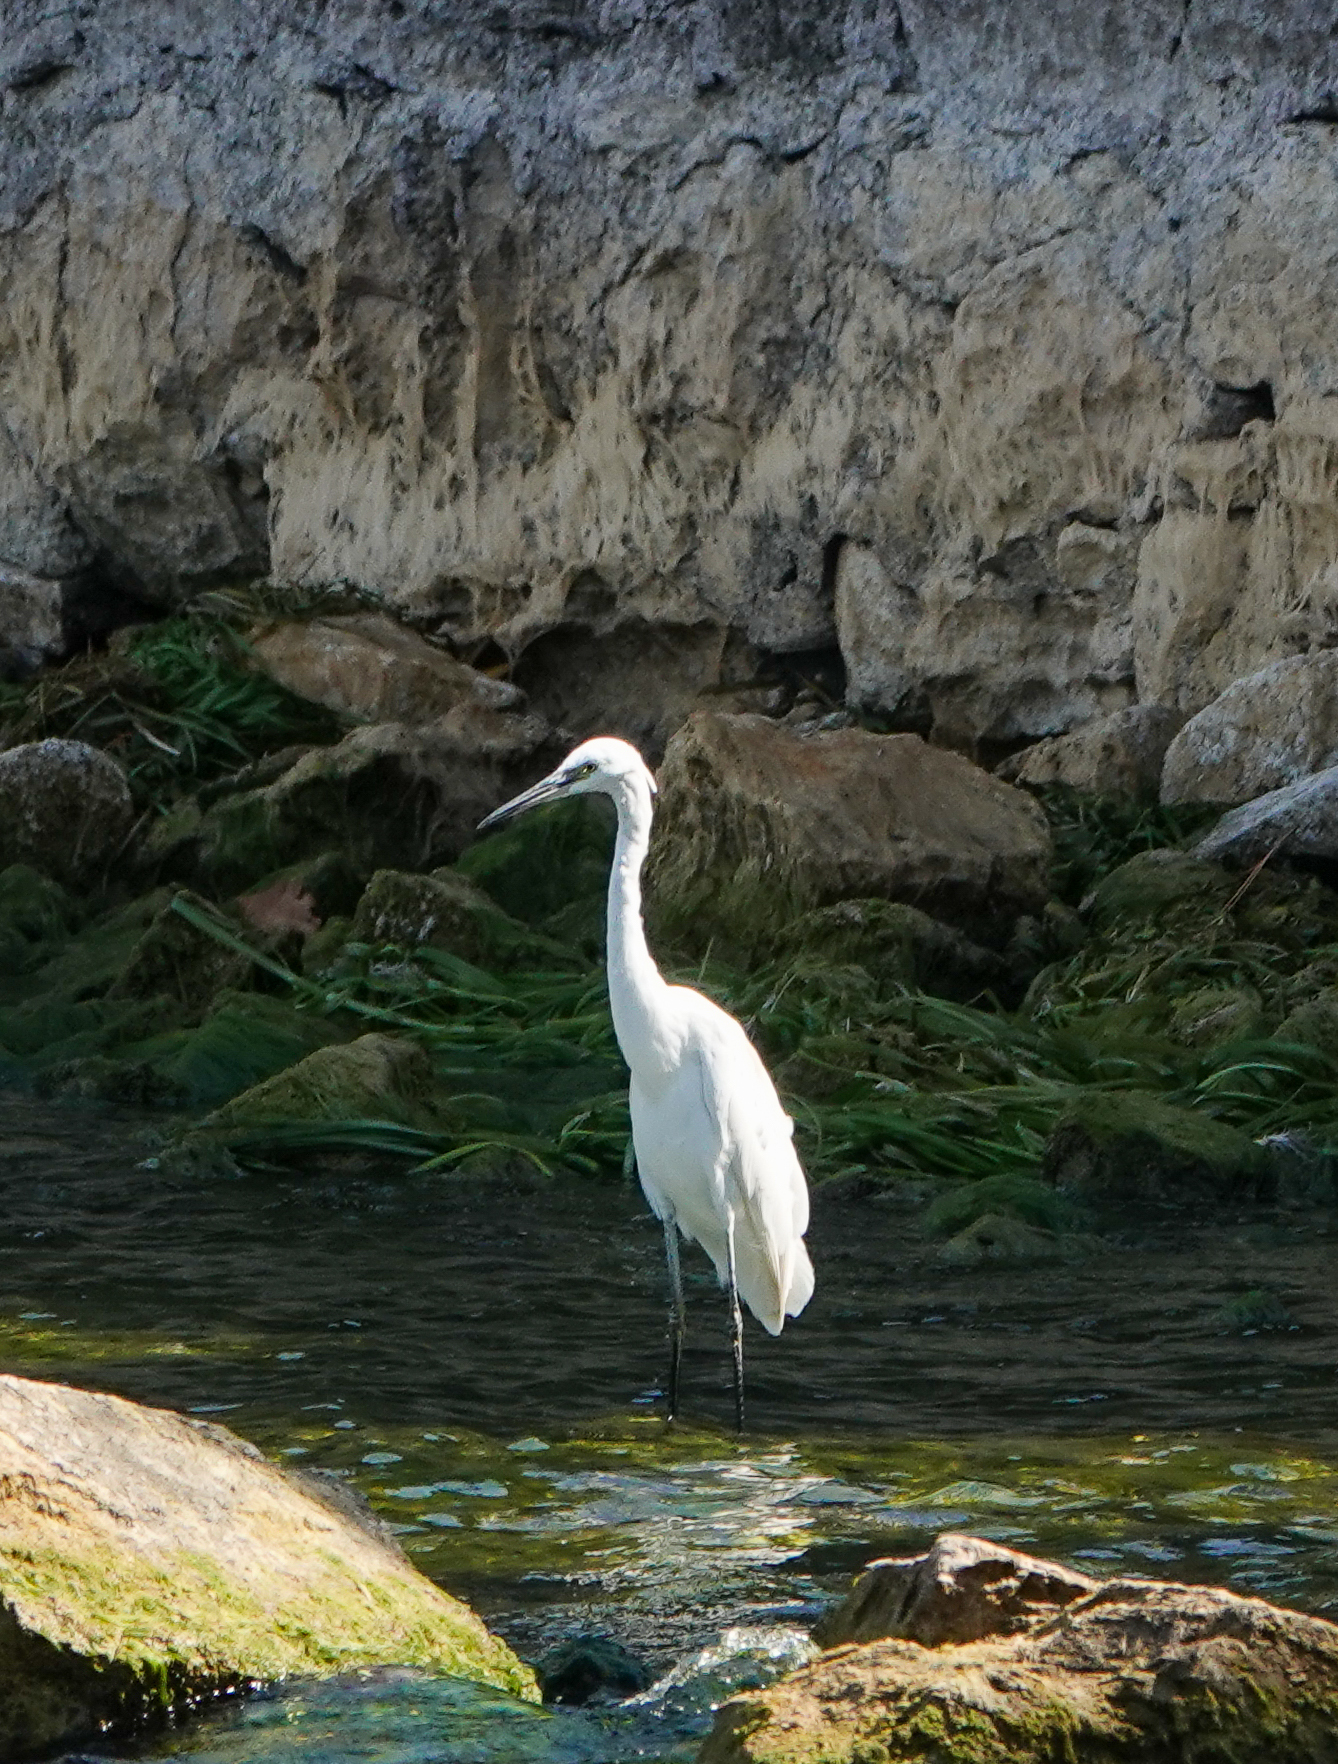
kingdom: Animalia
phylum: Chordata
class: Aves
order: Pelecaniformes
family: Ardeidae
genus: Egretta
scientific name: Egretta garzetta
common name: Little egret
